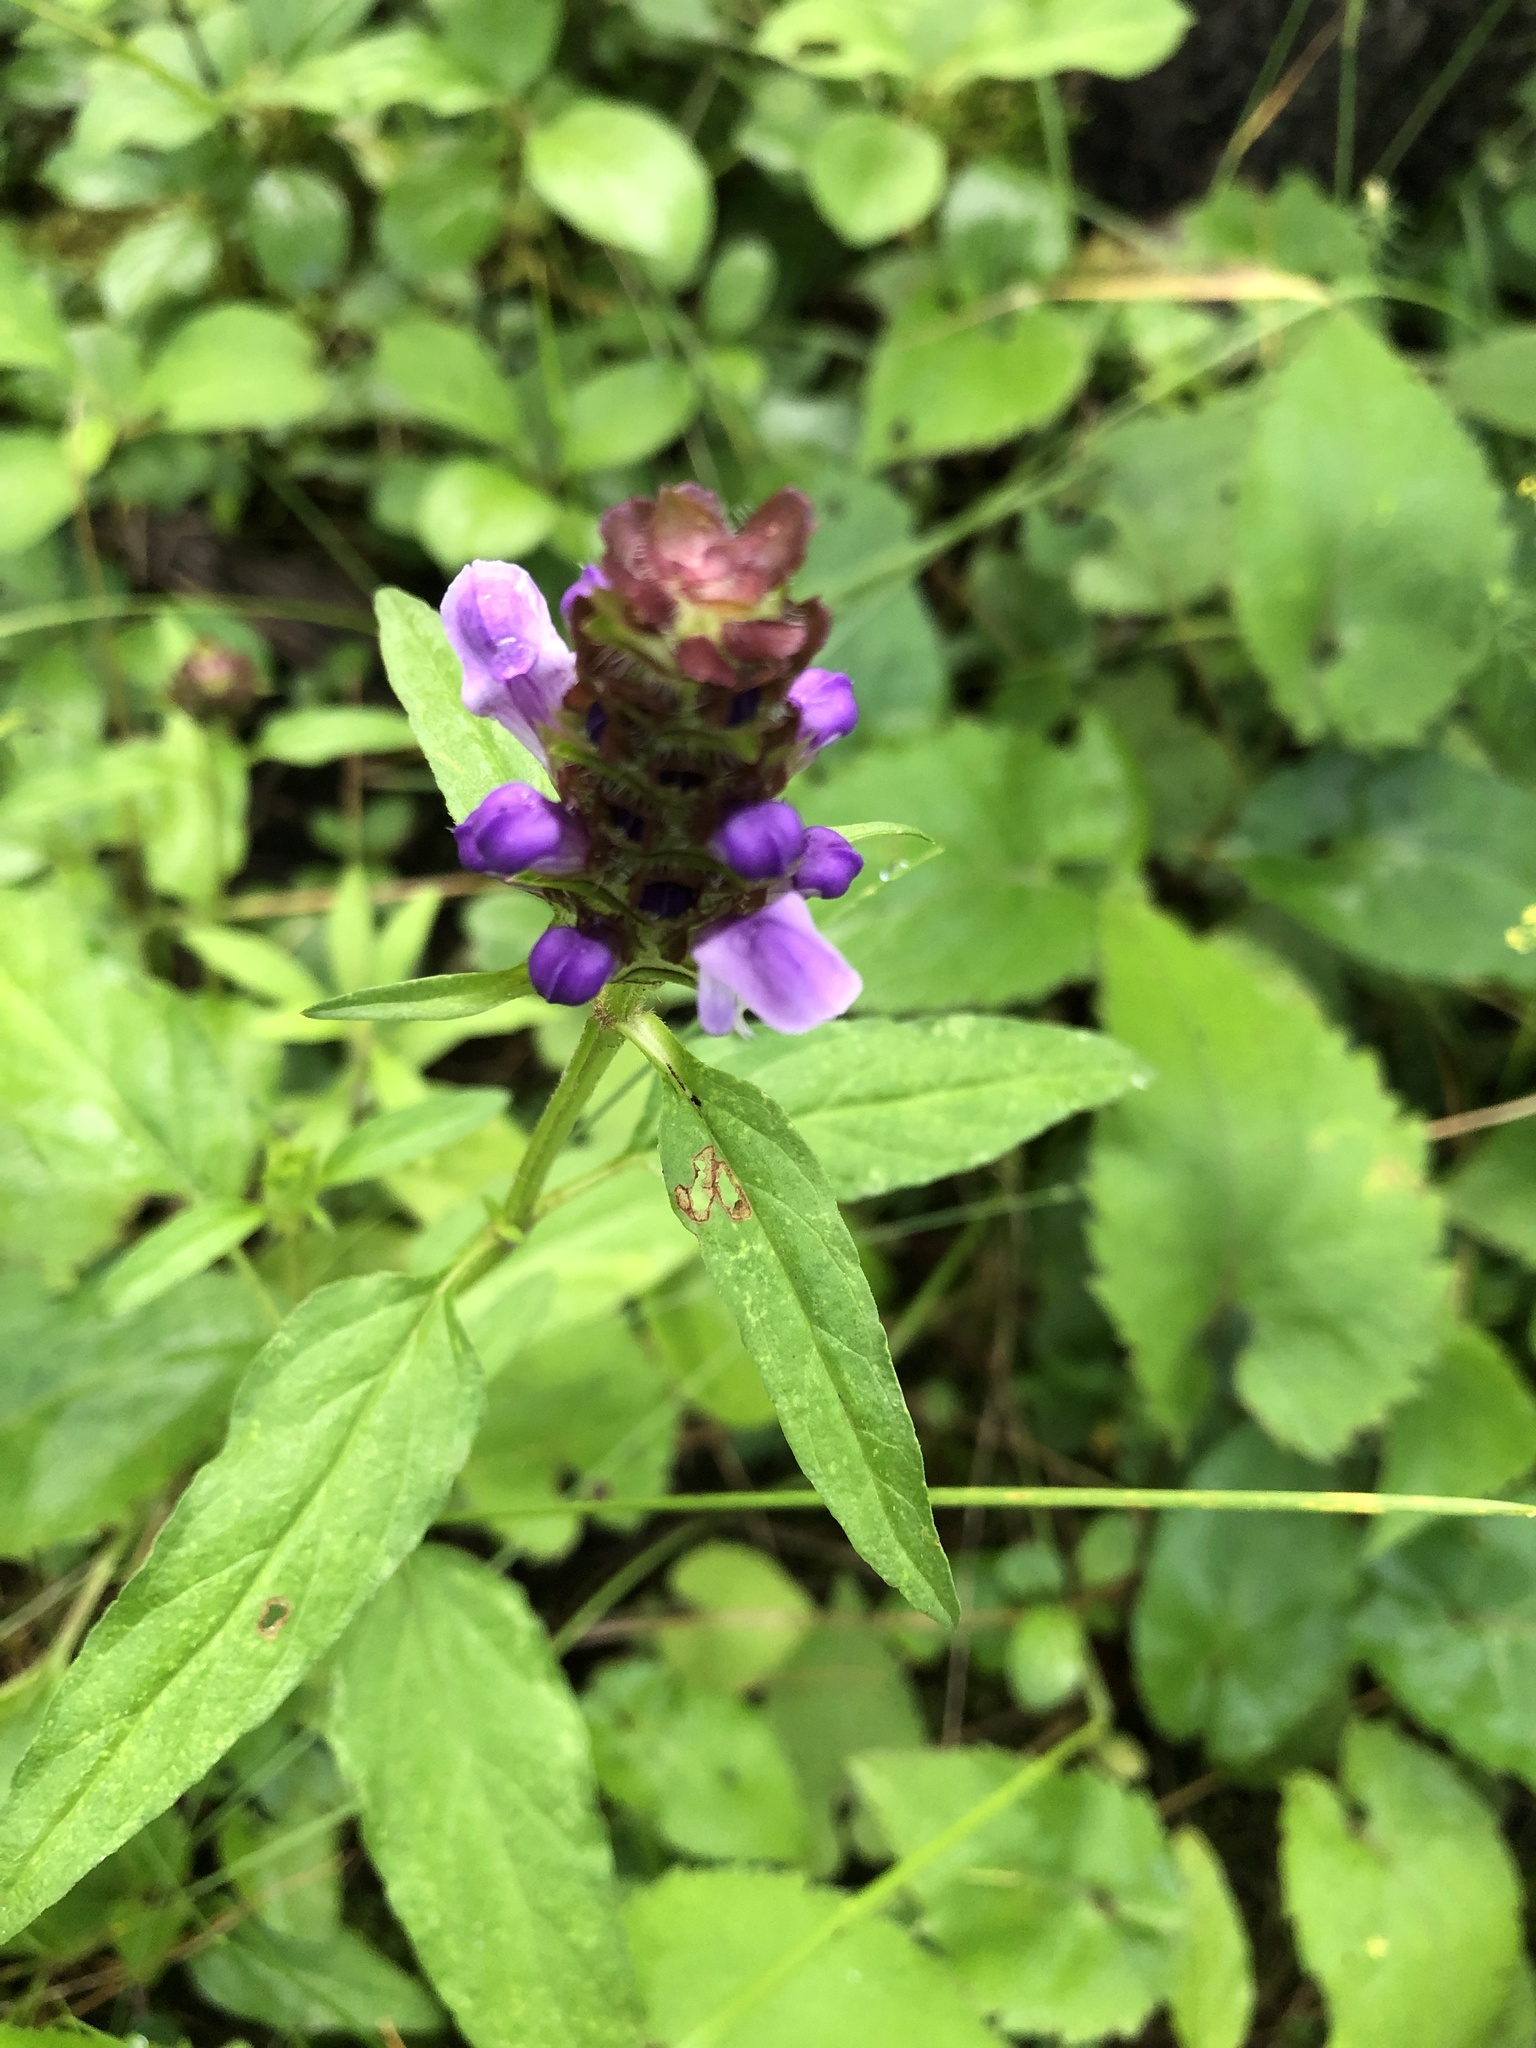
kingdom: Plantae
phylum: Tracheophyta
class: Magnoliopsida
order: Lamiales
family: Lamiaceae
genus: Prunella
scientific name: Prunella vulgaris
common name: Heal-all
